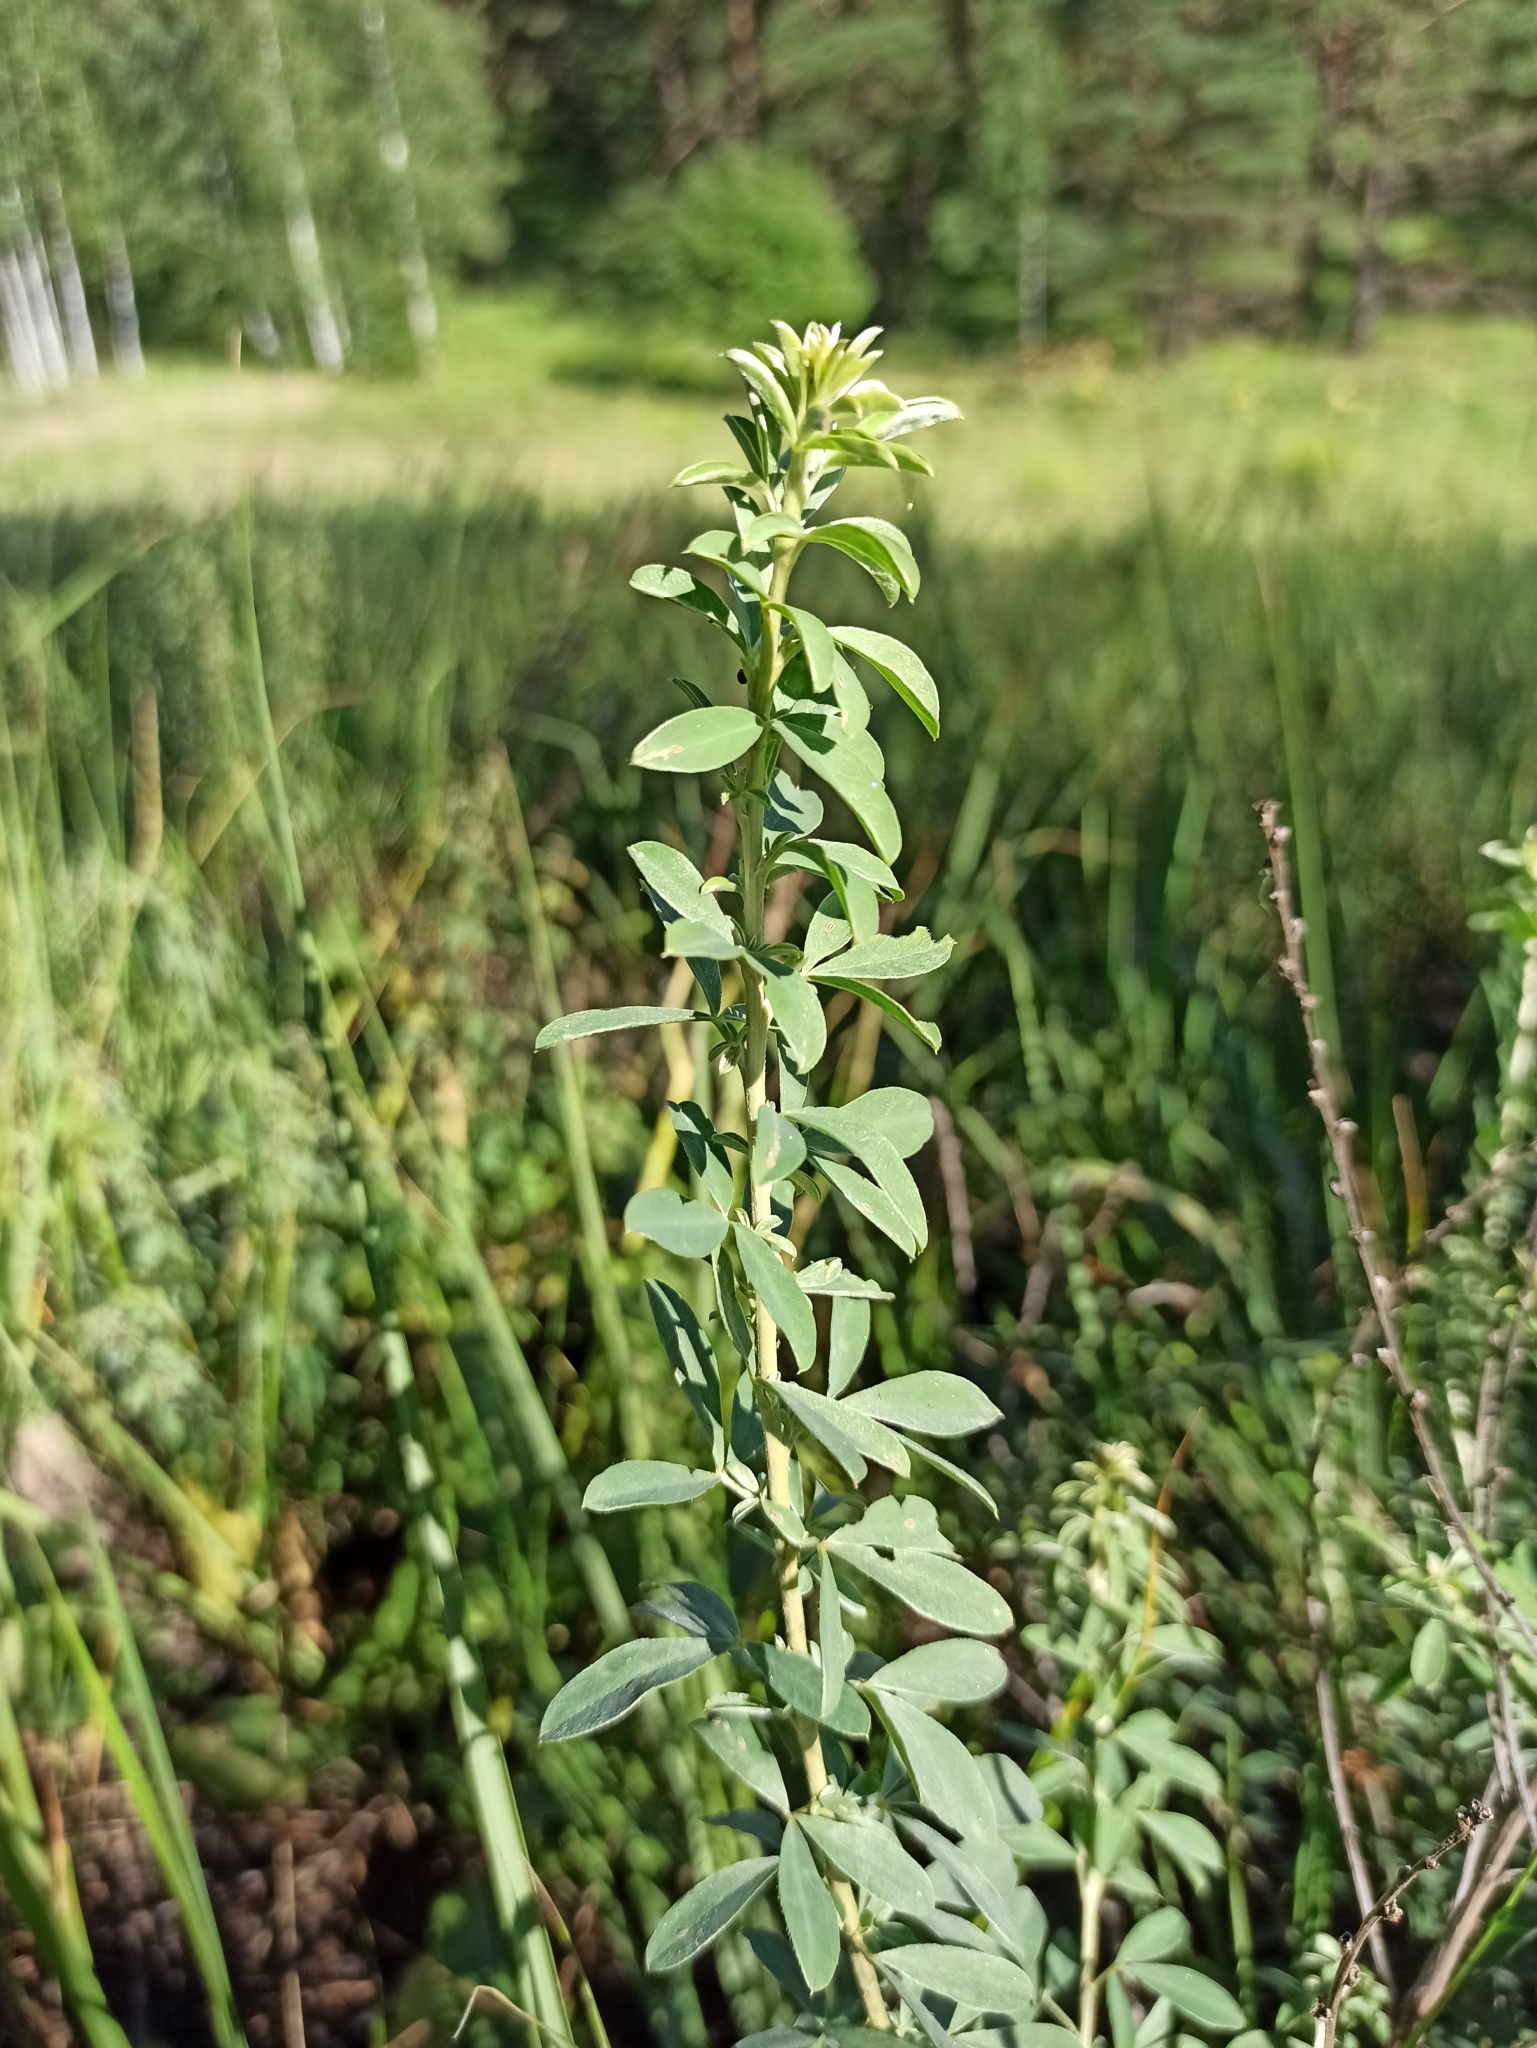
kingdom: Plantae
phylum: Tracheophyta
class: Magnoliopsida
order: Fabales
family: Fabaceae
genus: Chamaecytisus
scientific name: Chamaecytisus ruthenicus
